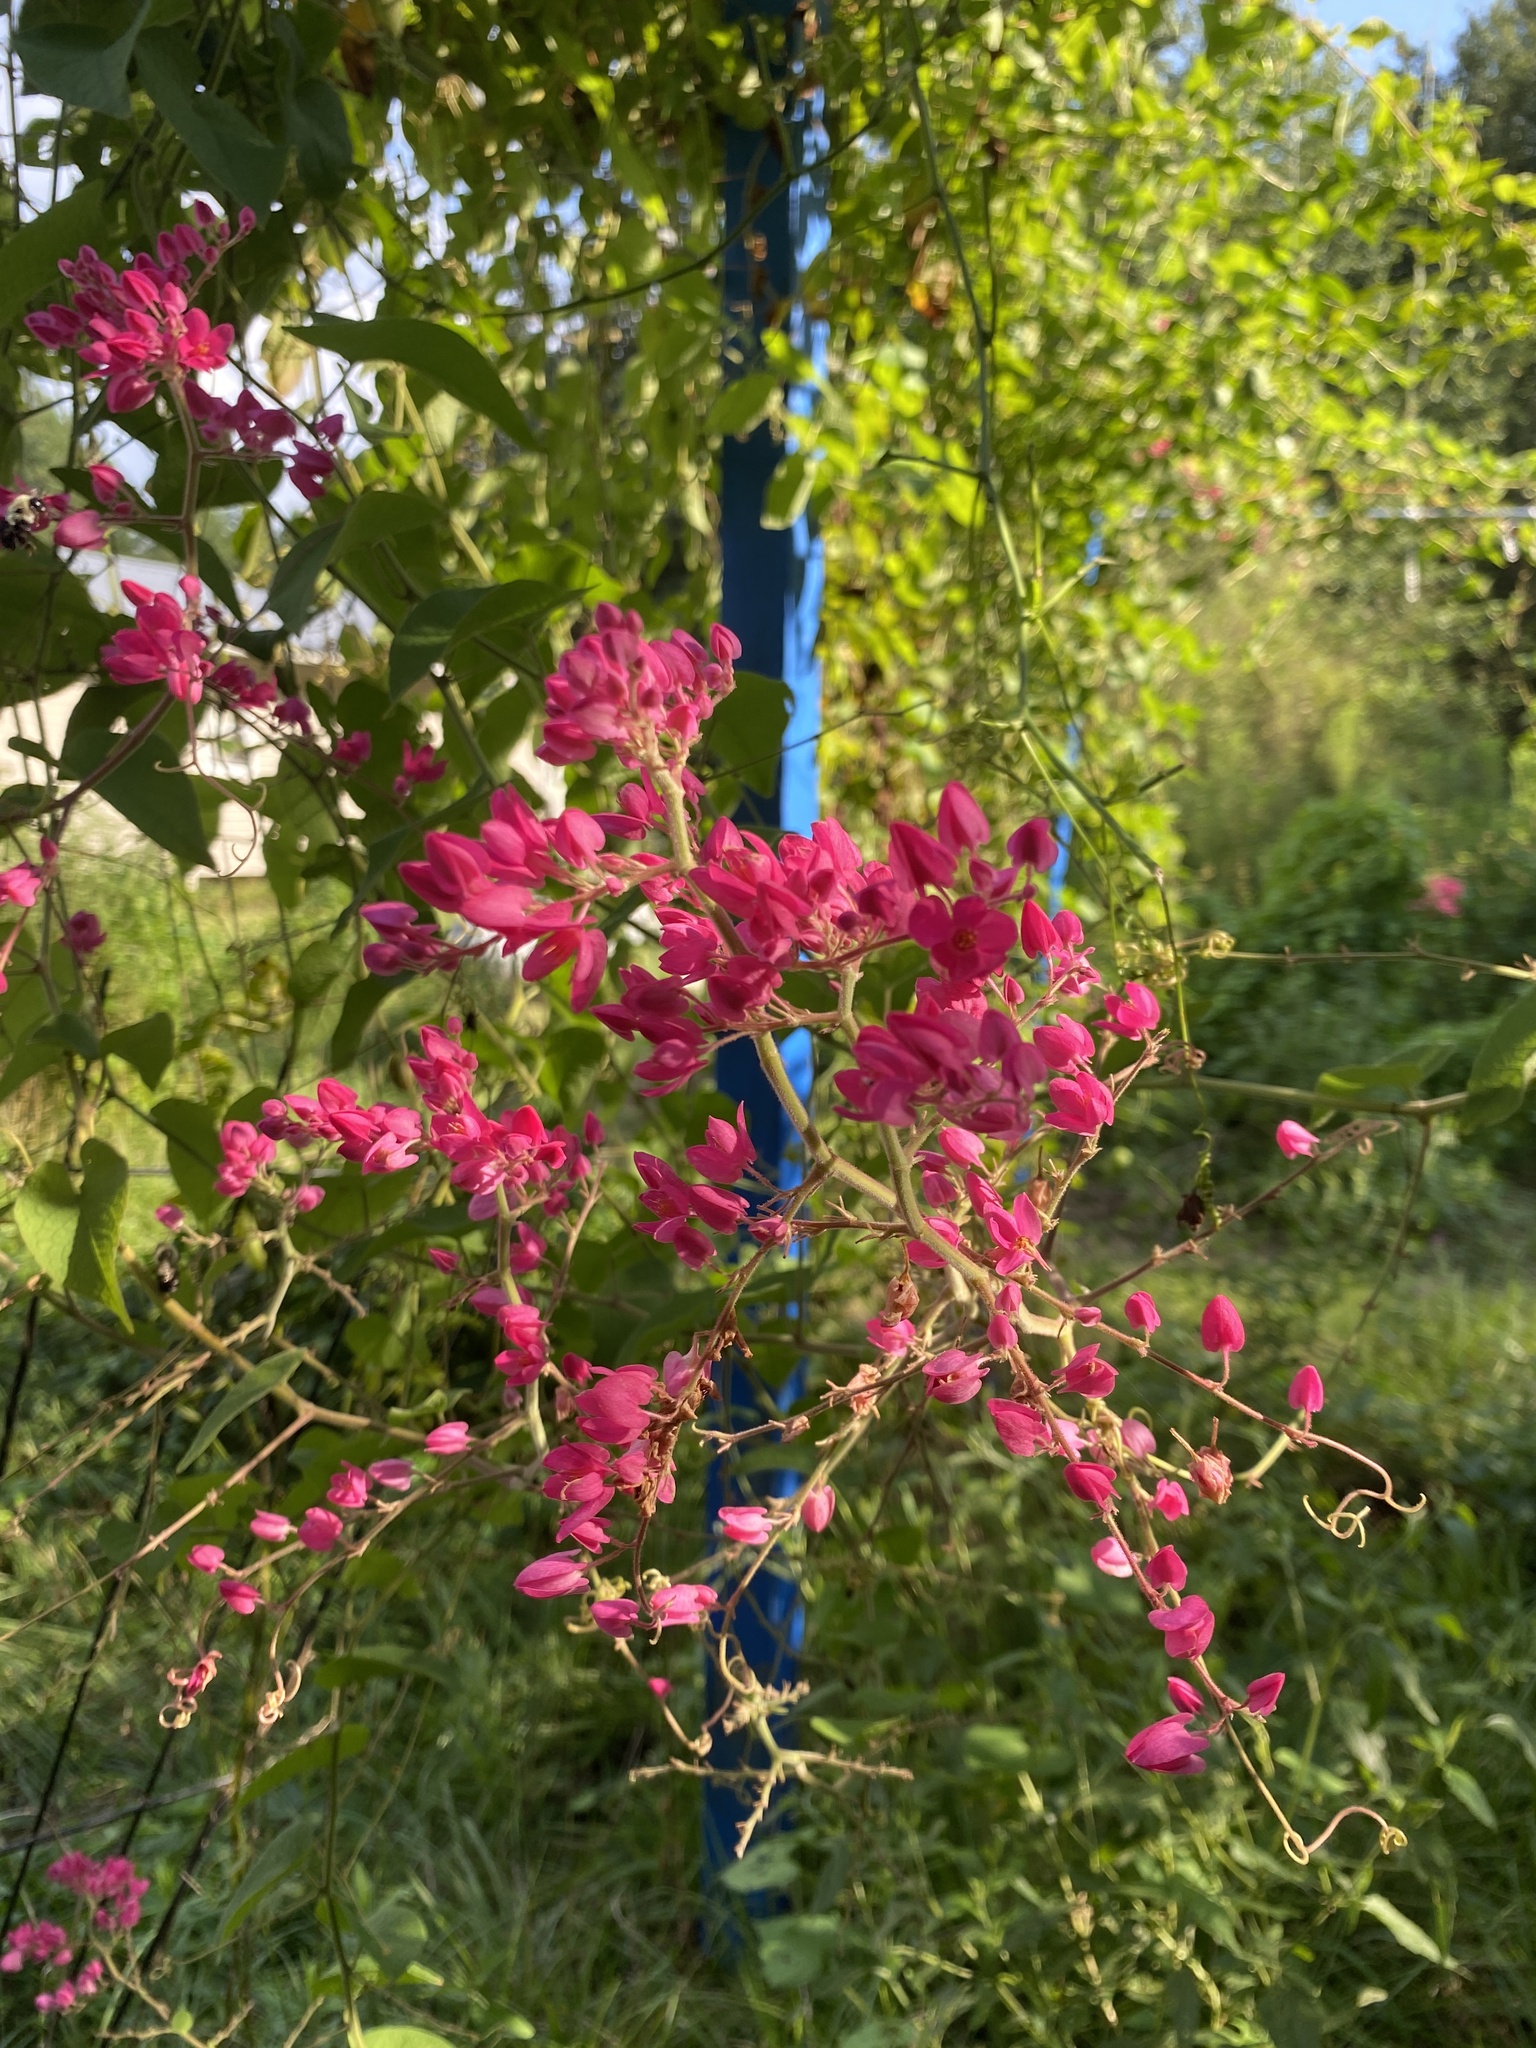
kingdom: Plantae
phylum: Tracheophyta
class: Magnoliopsida
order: Caryophyllales
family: Polygonaceae
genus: Antigonon
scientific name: Antigonon leptopus
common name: Coral vine
